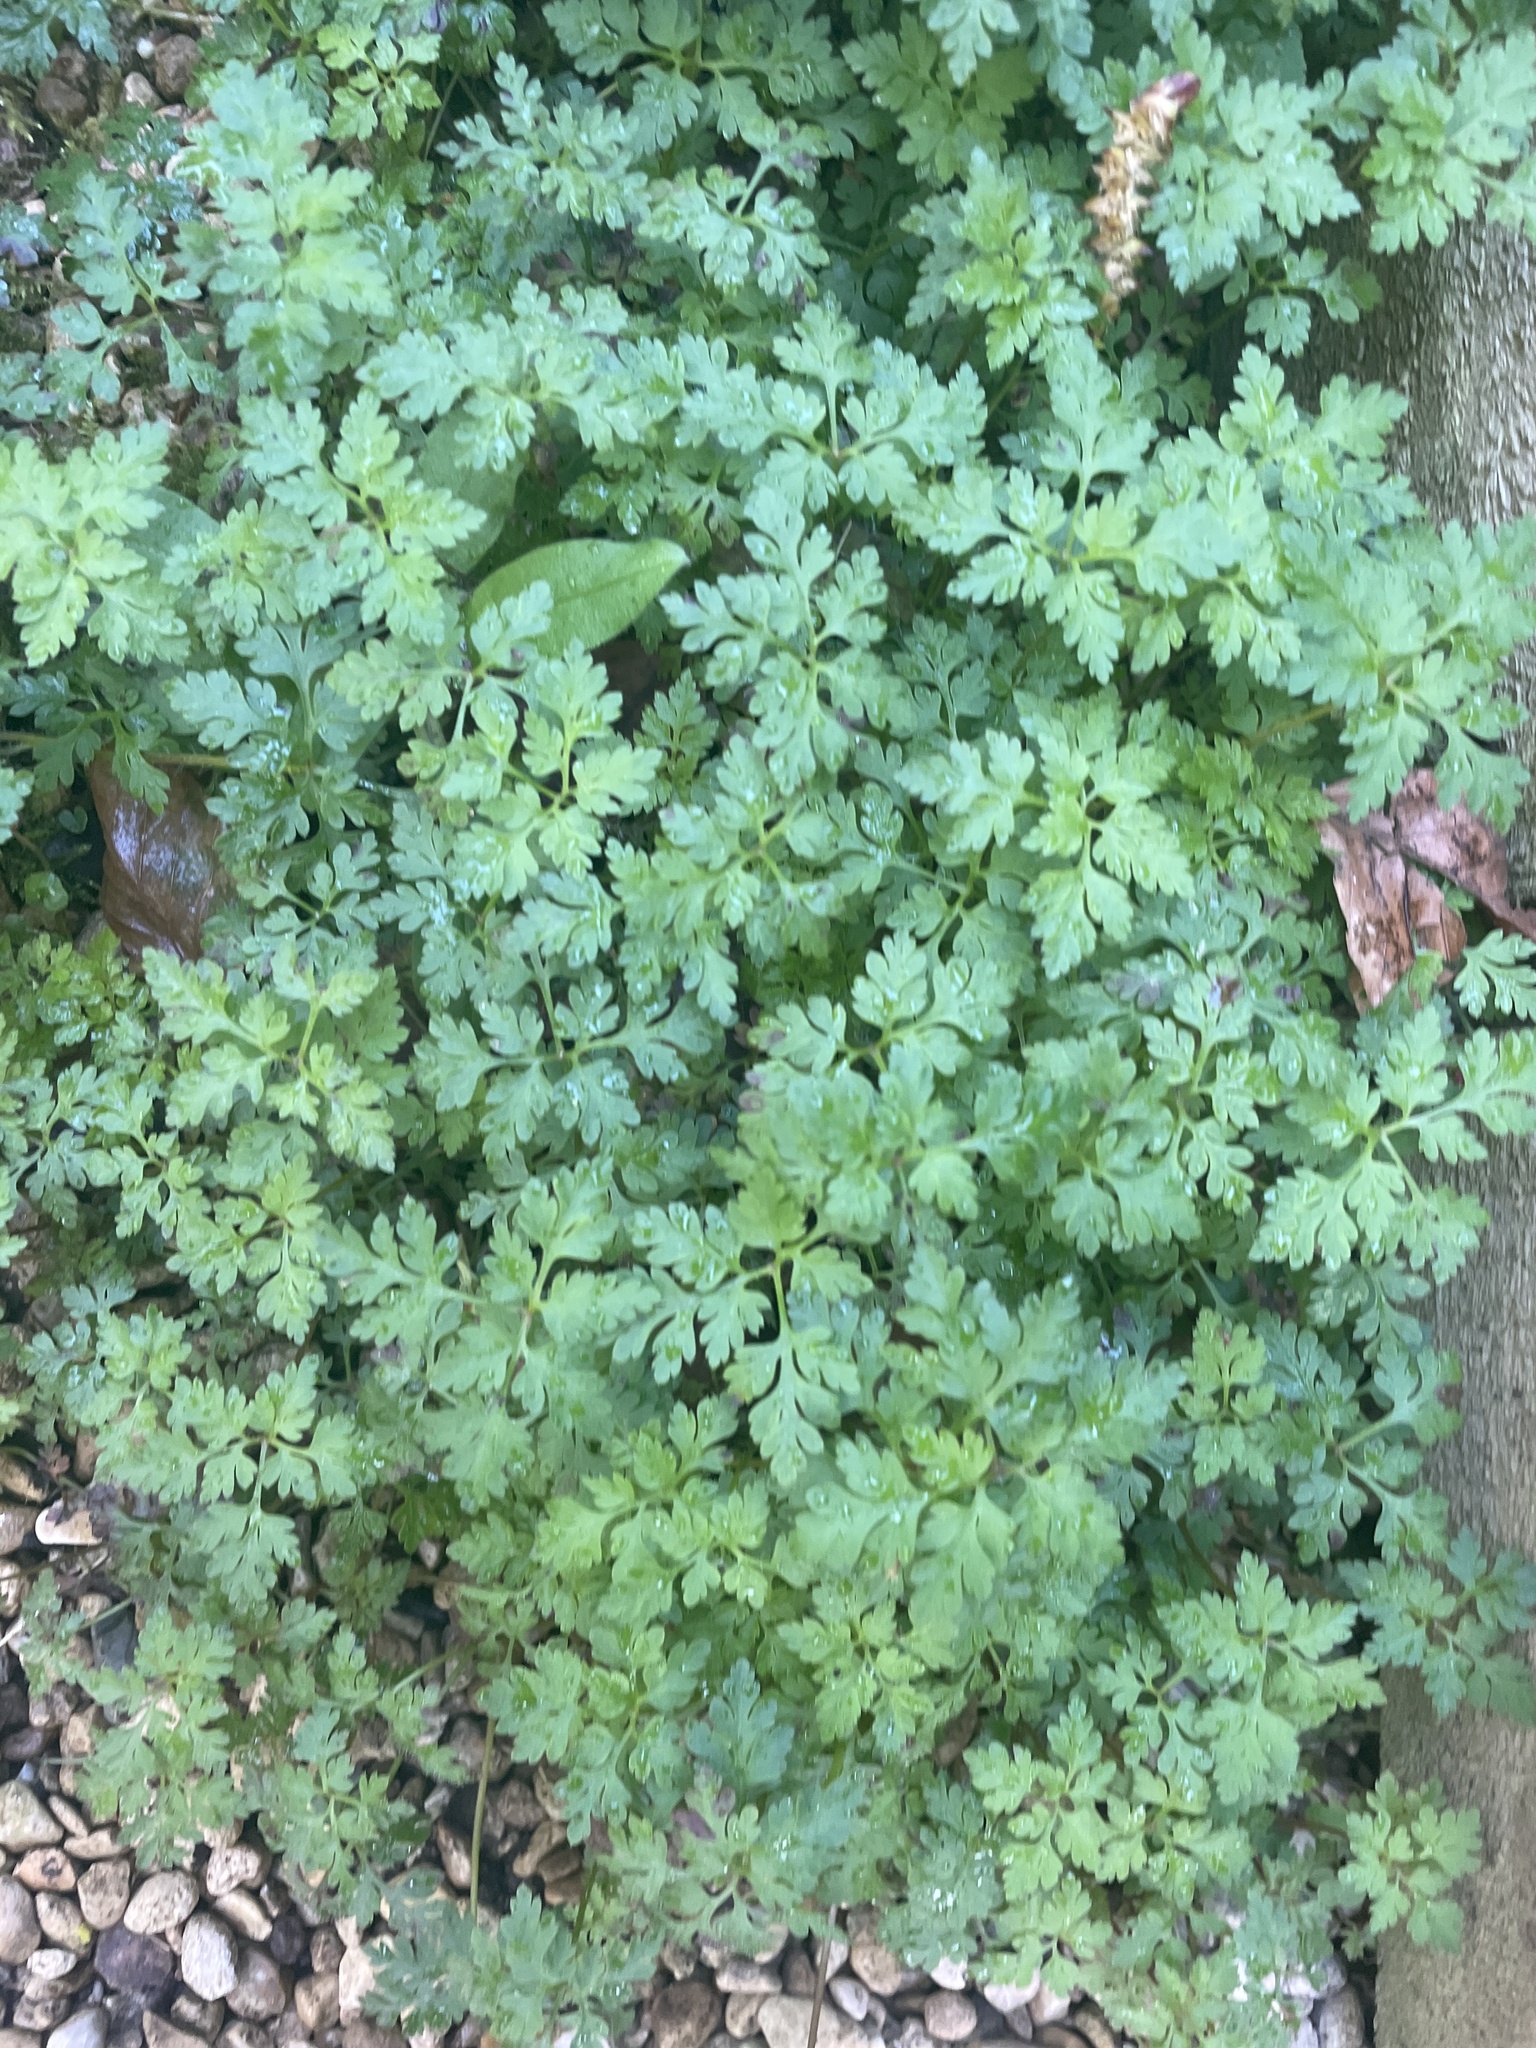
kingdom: Plantae
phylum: Tracheophyta
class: Magnoliopsida
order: Geraniales
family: Geraniaceae
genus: Geranium
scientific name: Geranium robertianum
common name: Herb-robert
